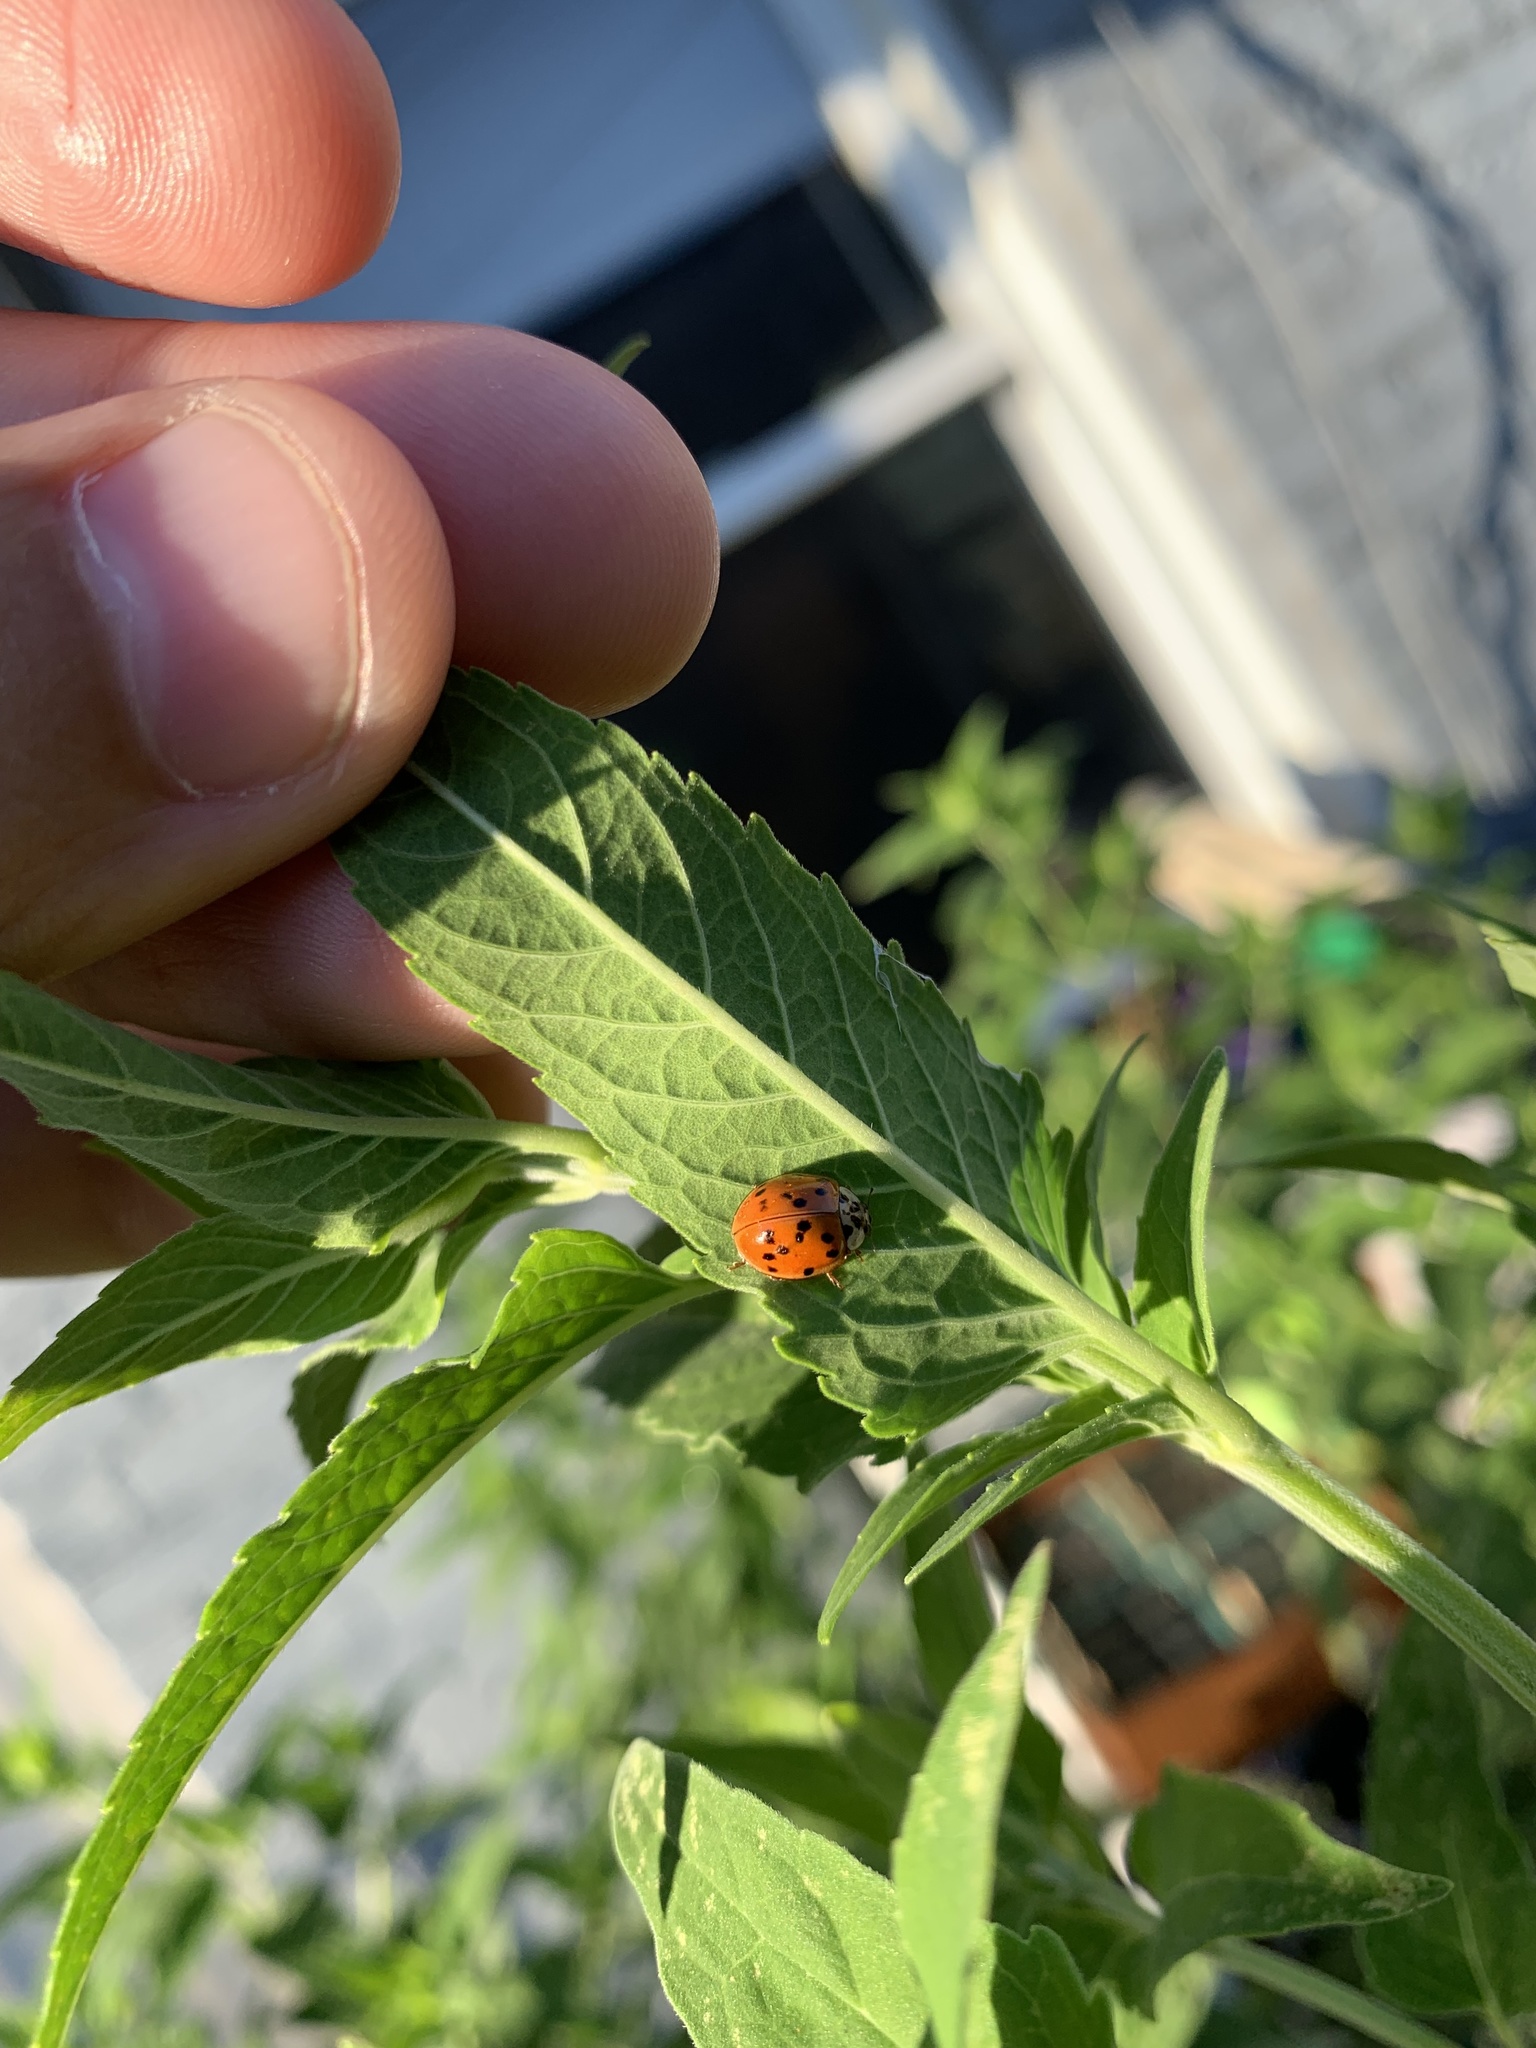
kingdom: Animalia
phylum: Arthropoda
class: Insecta
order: Coleoptera
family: Coccinellidae
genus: Harmonia
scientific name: Harmonia axyridis
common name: Harlequin ladybird
